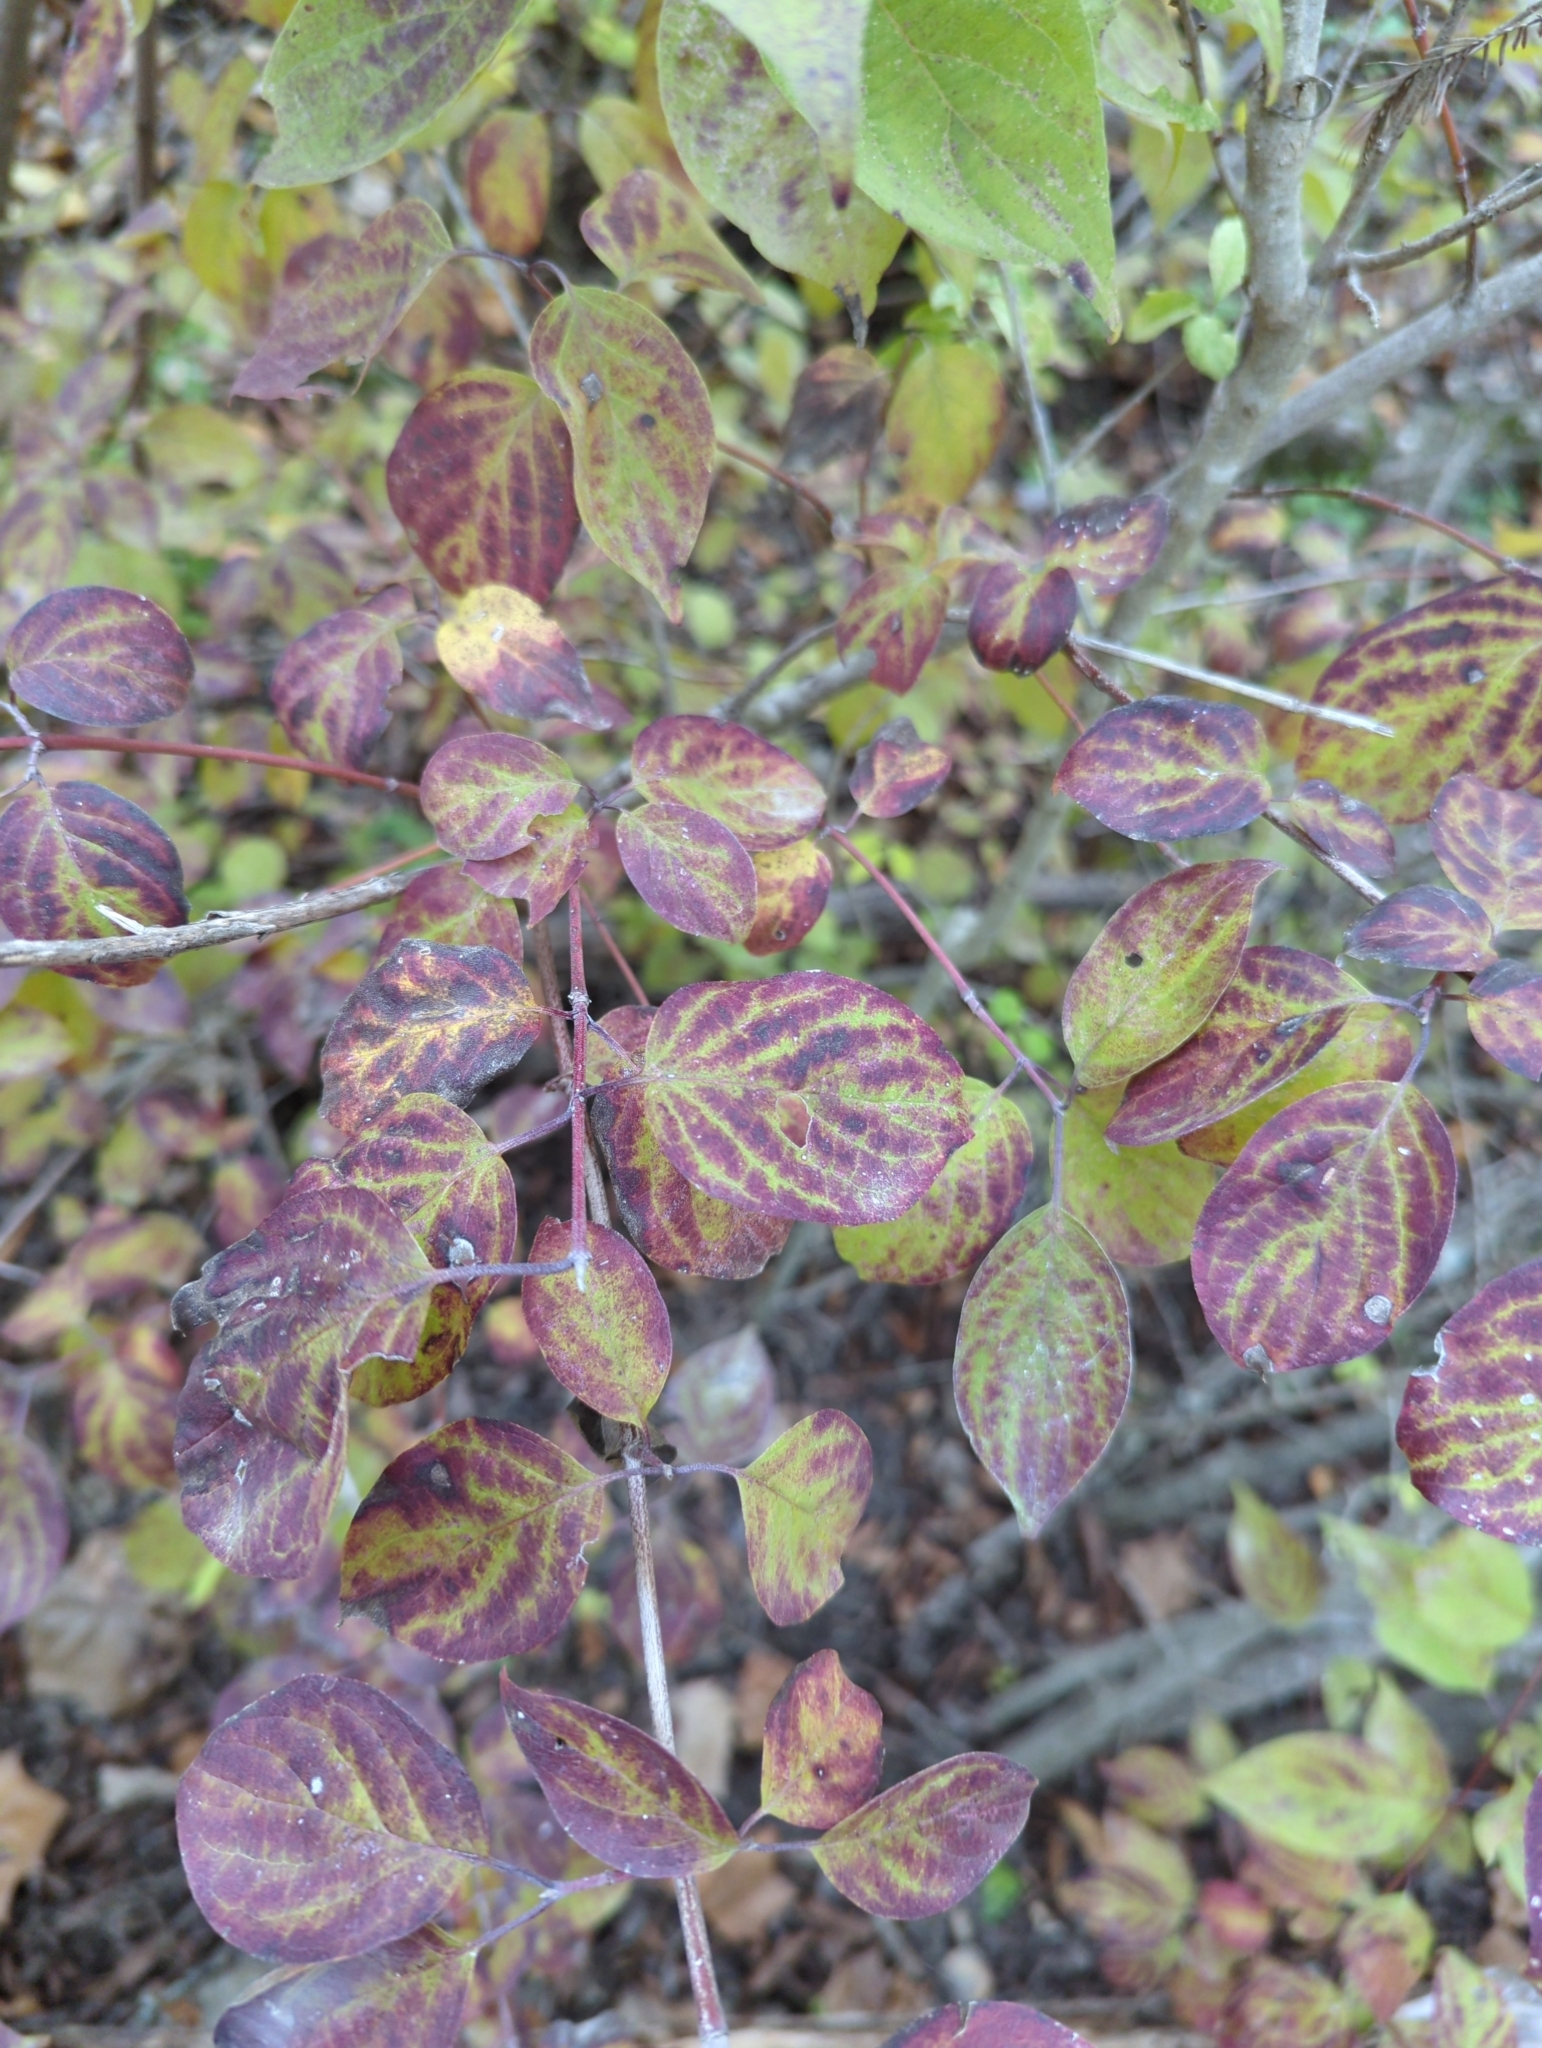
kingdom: Plantae
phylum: Tracheophyta
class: Magnoliopsida
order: Cornales
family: Cornaceae
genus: Cornus
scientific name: Cornus drummondii
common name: Rough-leaf dogwood
